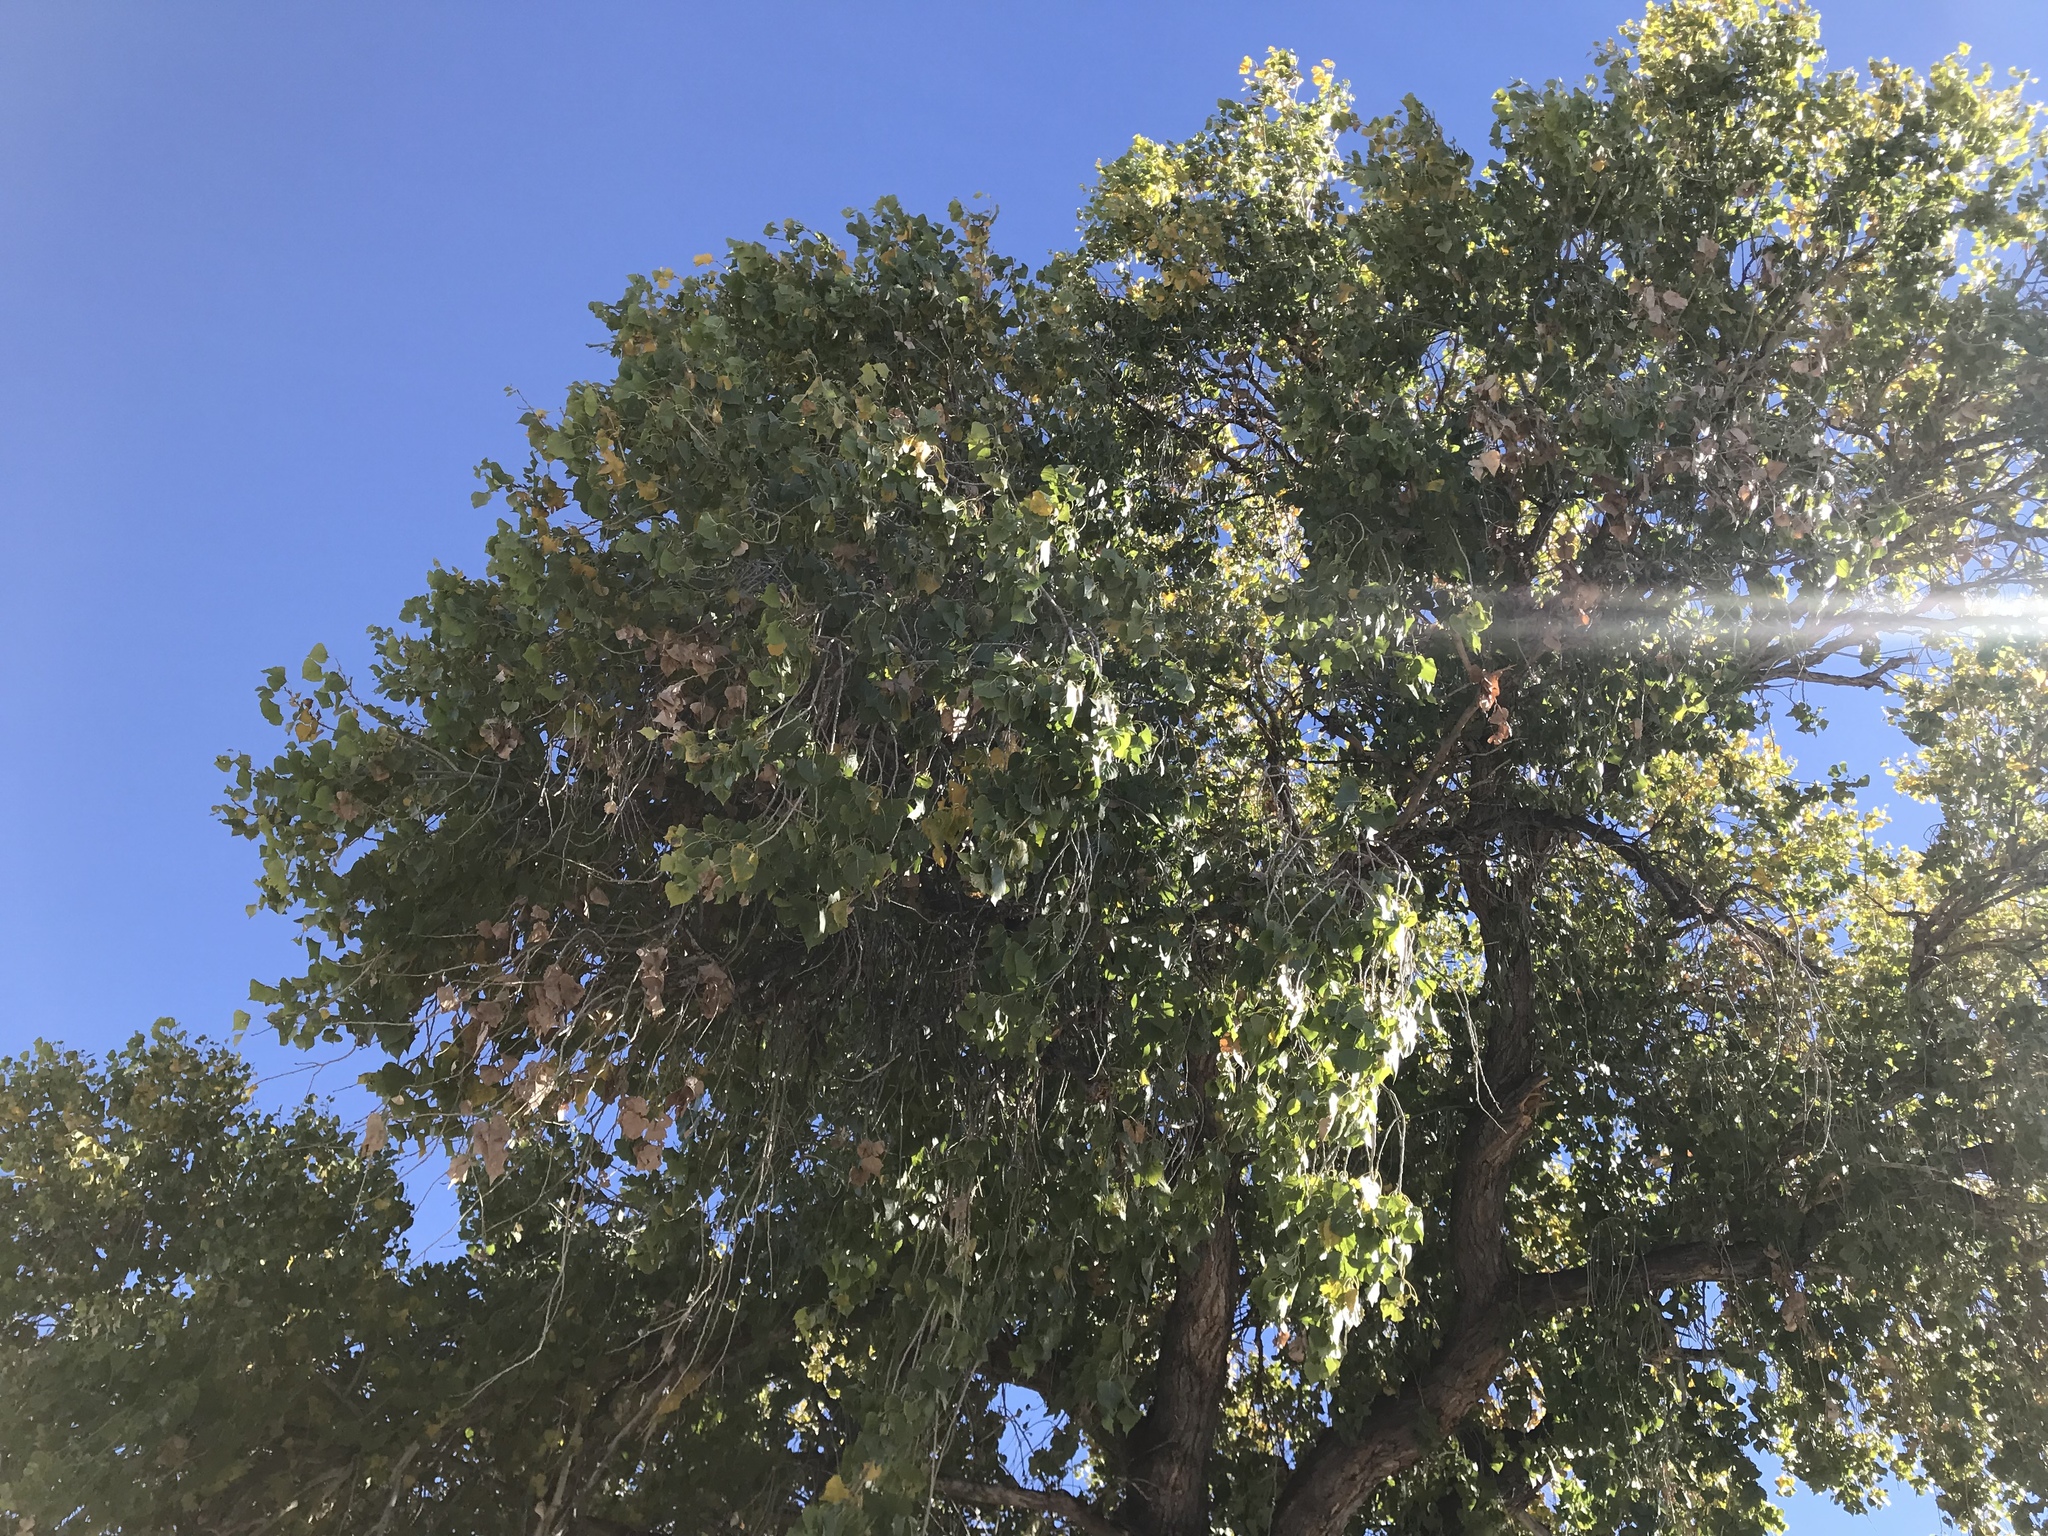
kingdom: Plantae
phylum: Tracheophyta
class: Magnoliopsida
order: Malpighiales
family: Salicaceae
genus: Populus
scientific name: Populus fremontii
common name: Fremont's cottonwood
